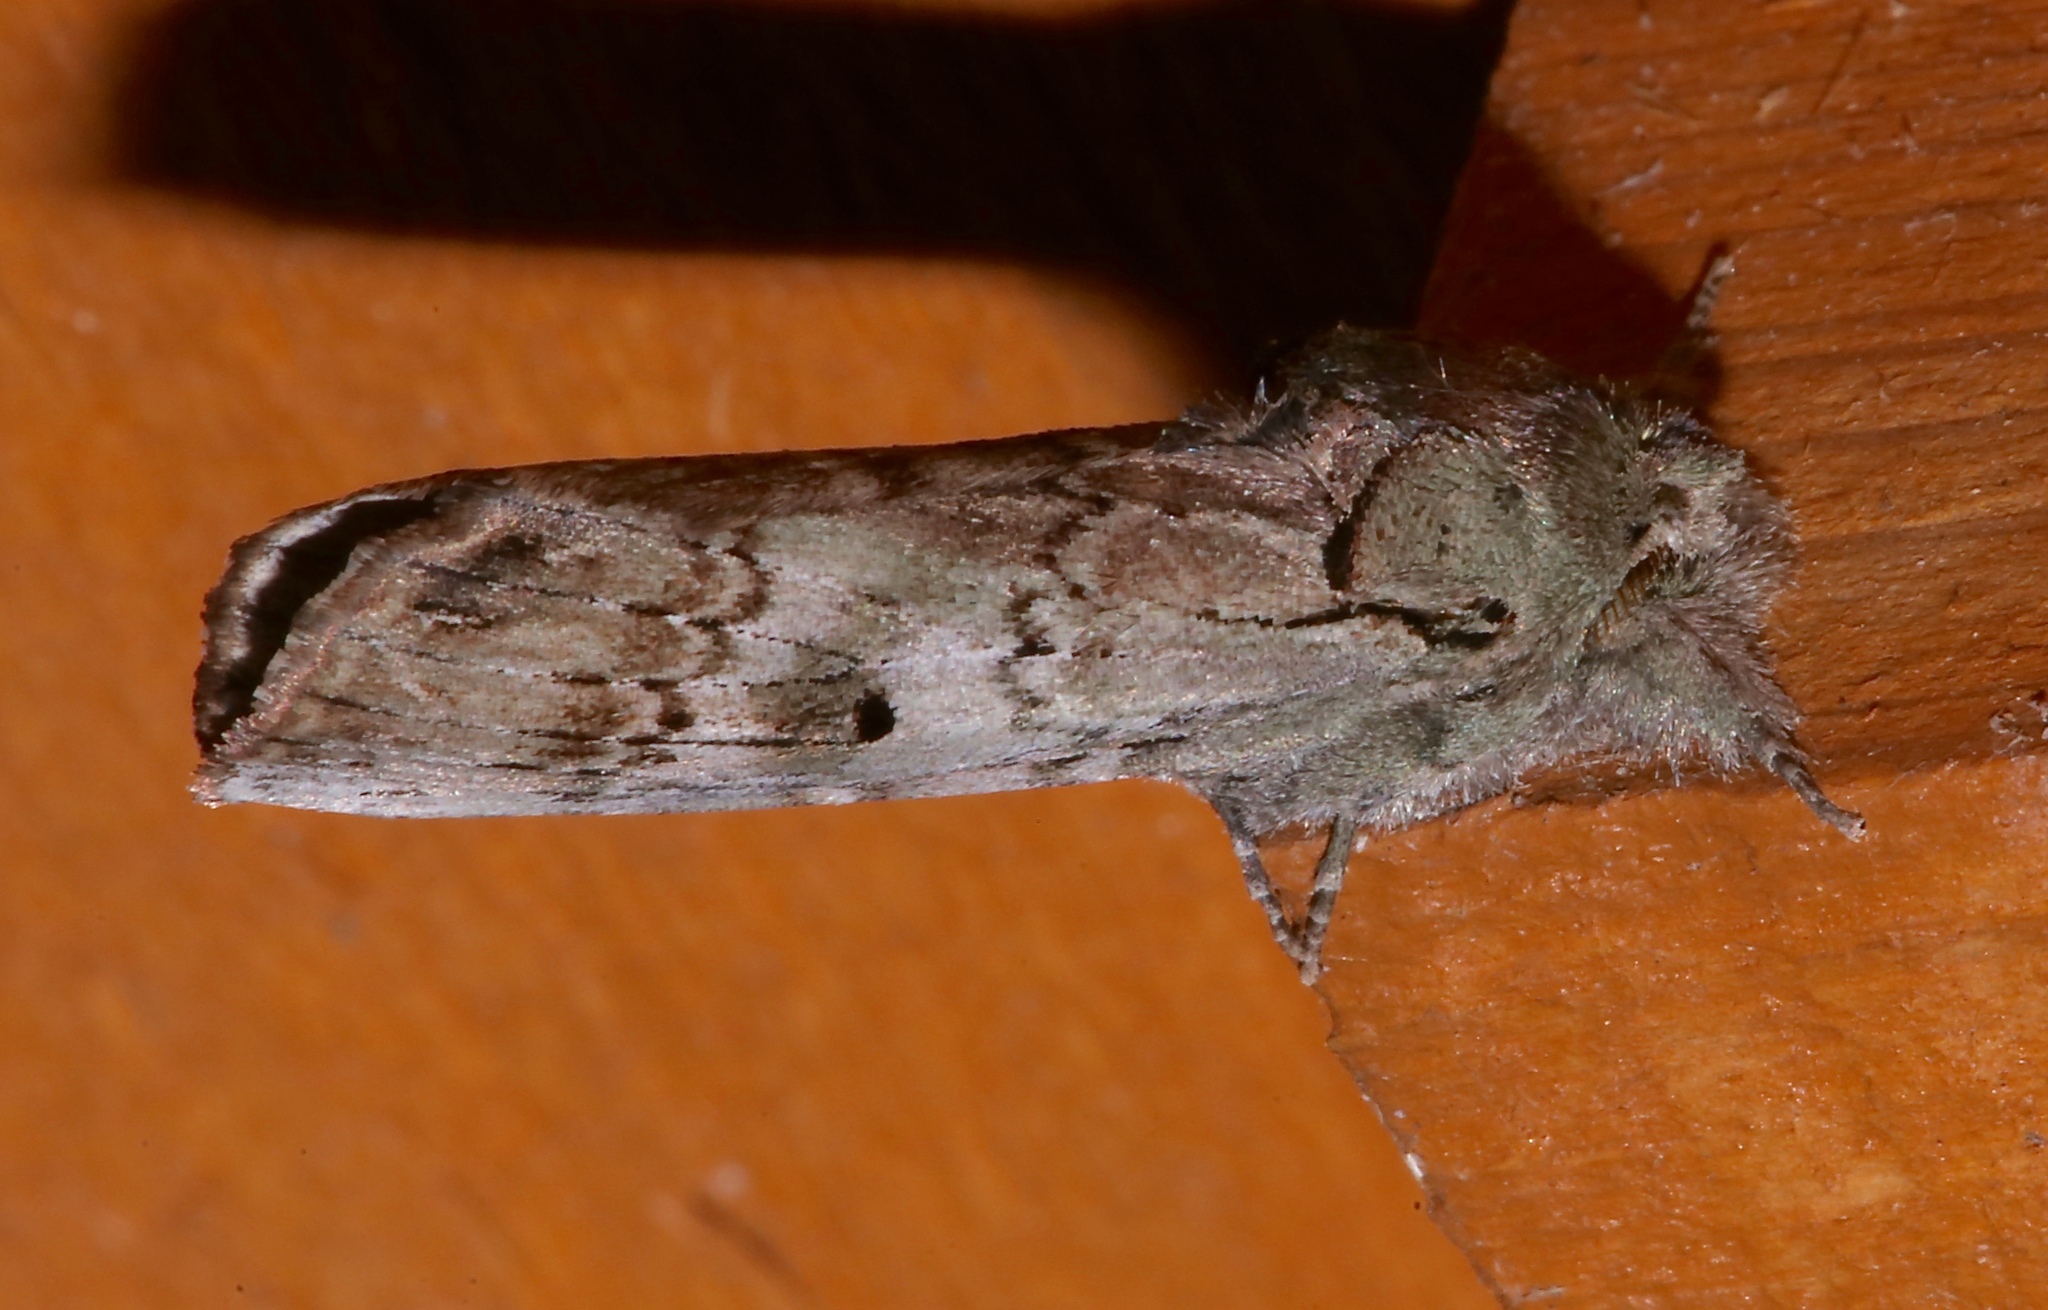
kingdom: Animalia
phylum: Arthropoda
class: Insecta
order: Lepidoptera
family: Notodontidae
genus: Schizura
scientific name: Schizura
